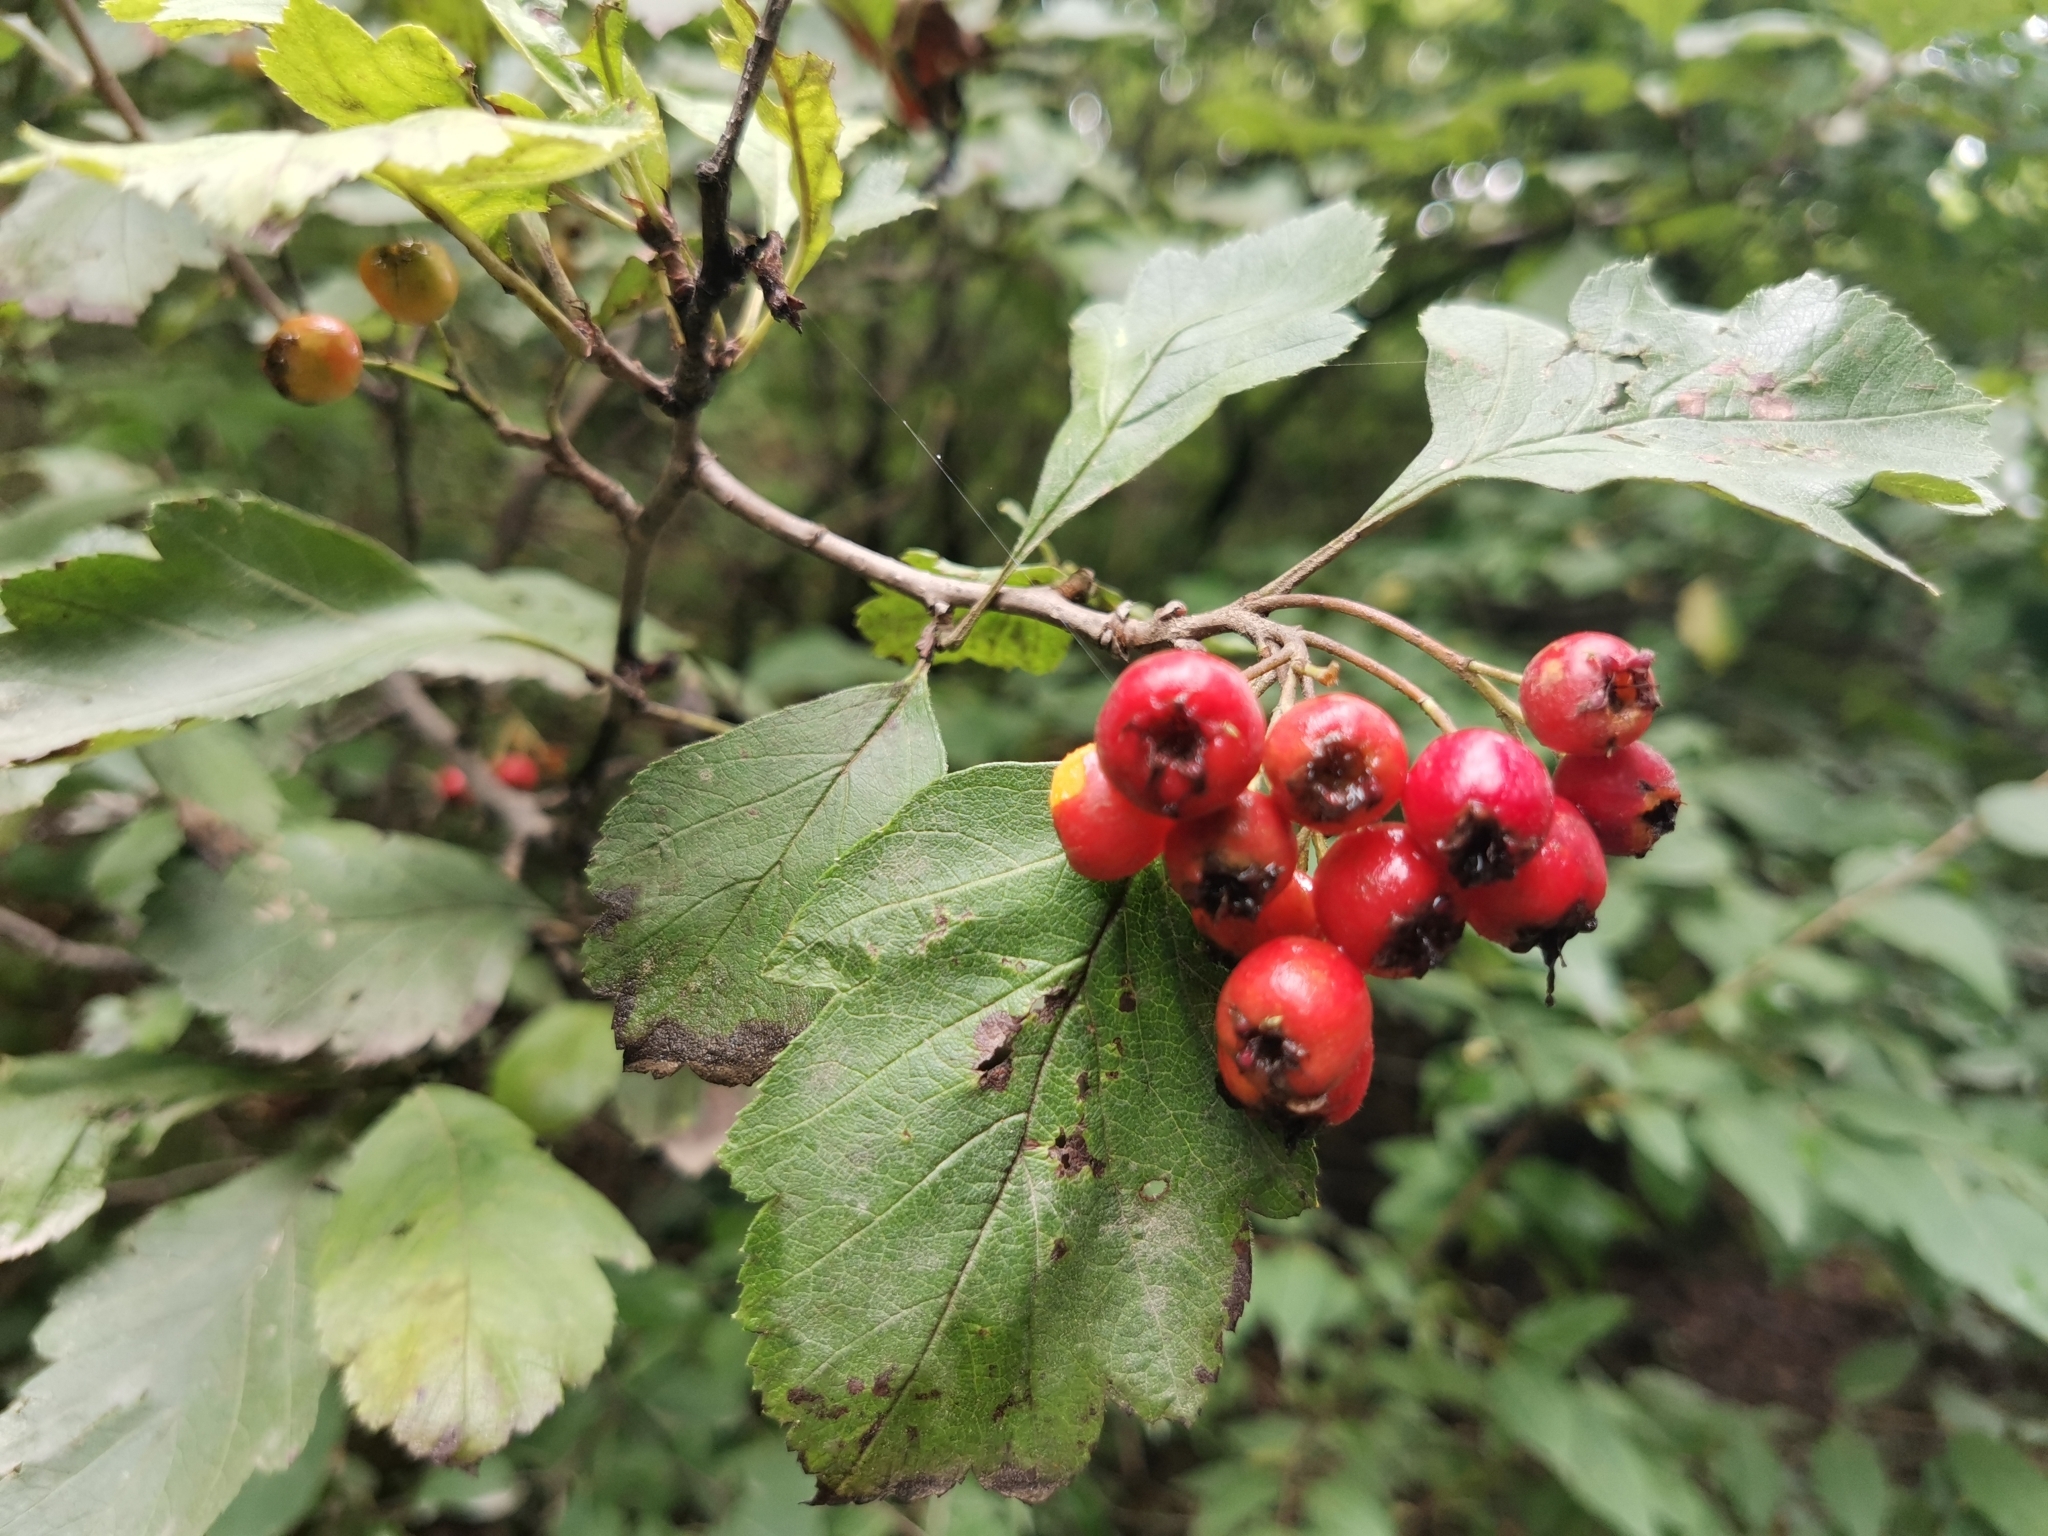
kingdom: Plantae
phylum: Tracheophyta
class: Magnoliopsida
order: Rosales
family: Rosaceae
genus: Crataegus
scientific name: Crataegus maximowiczii
